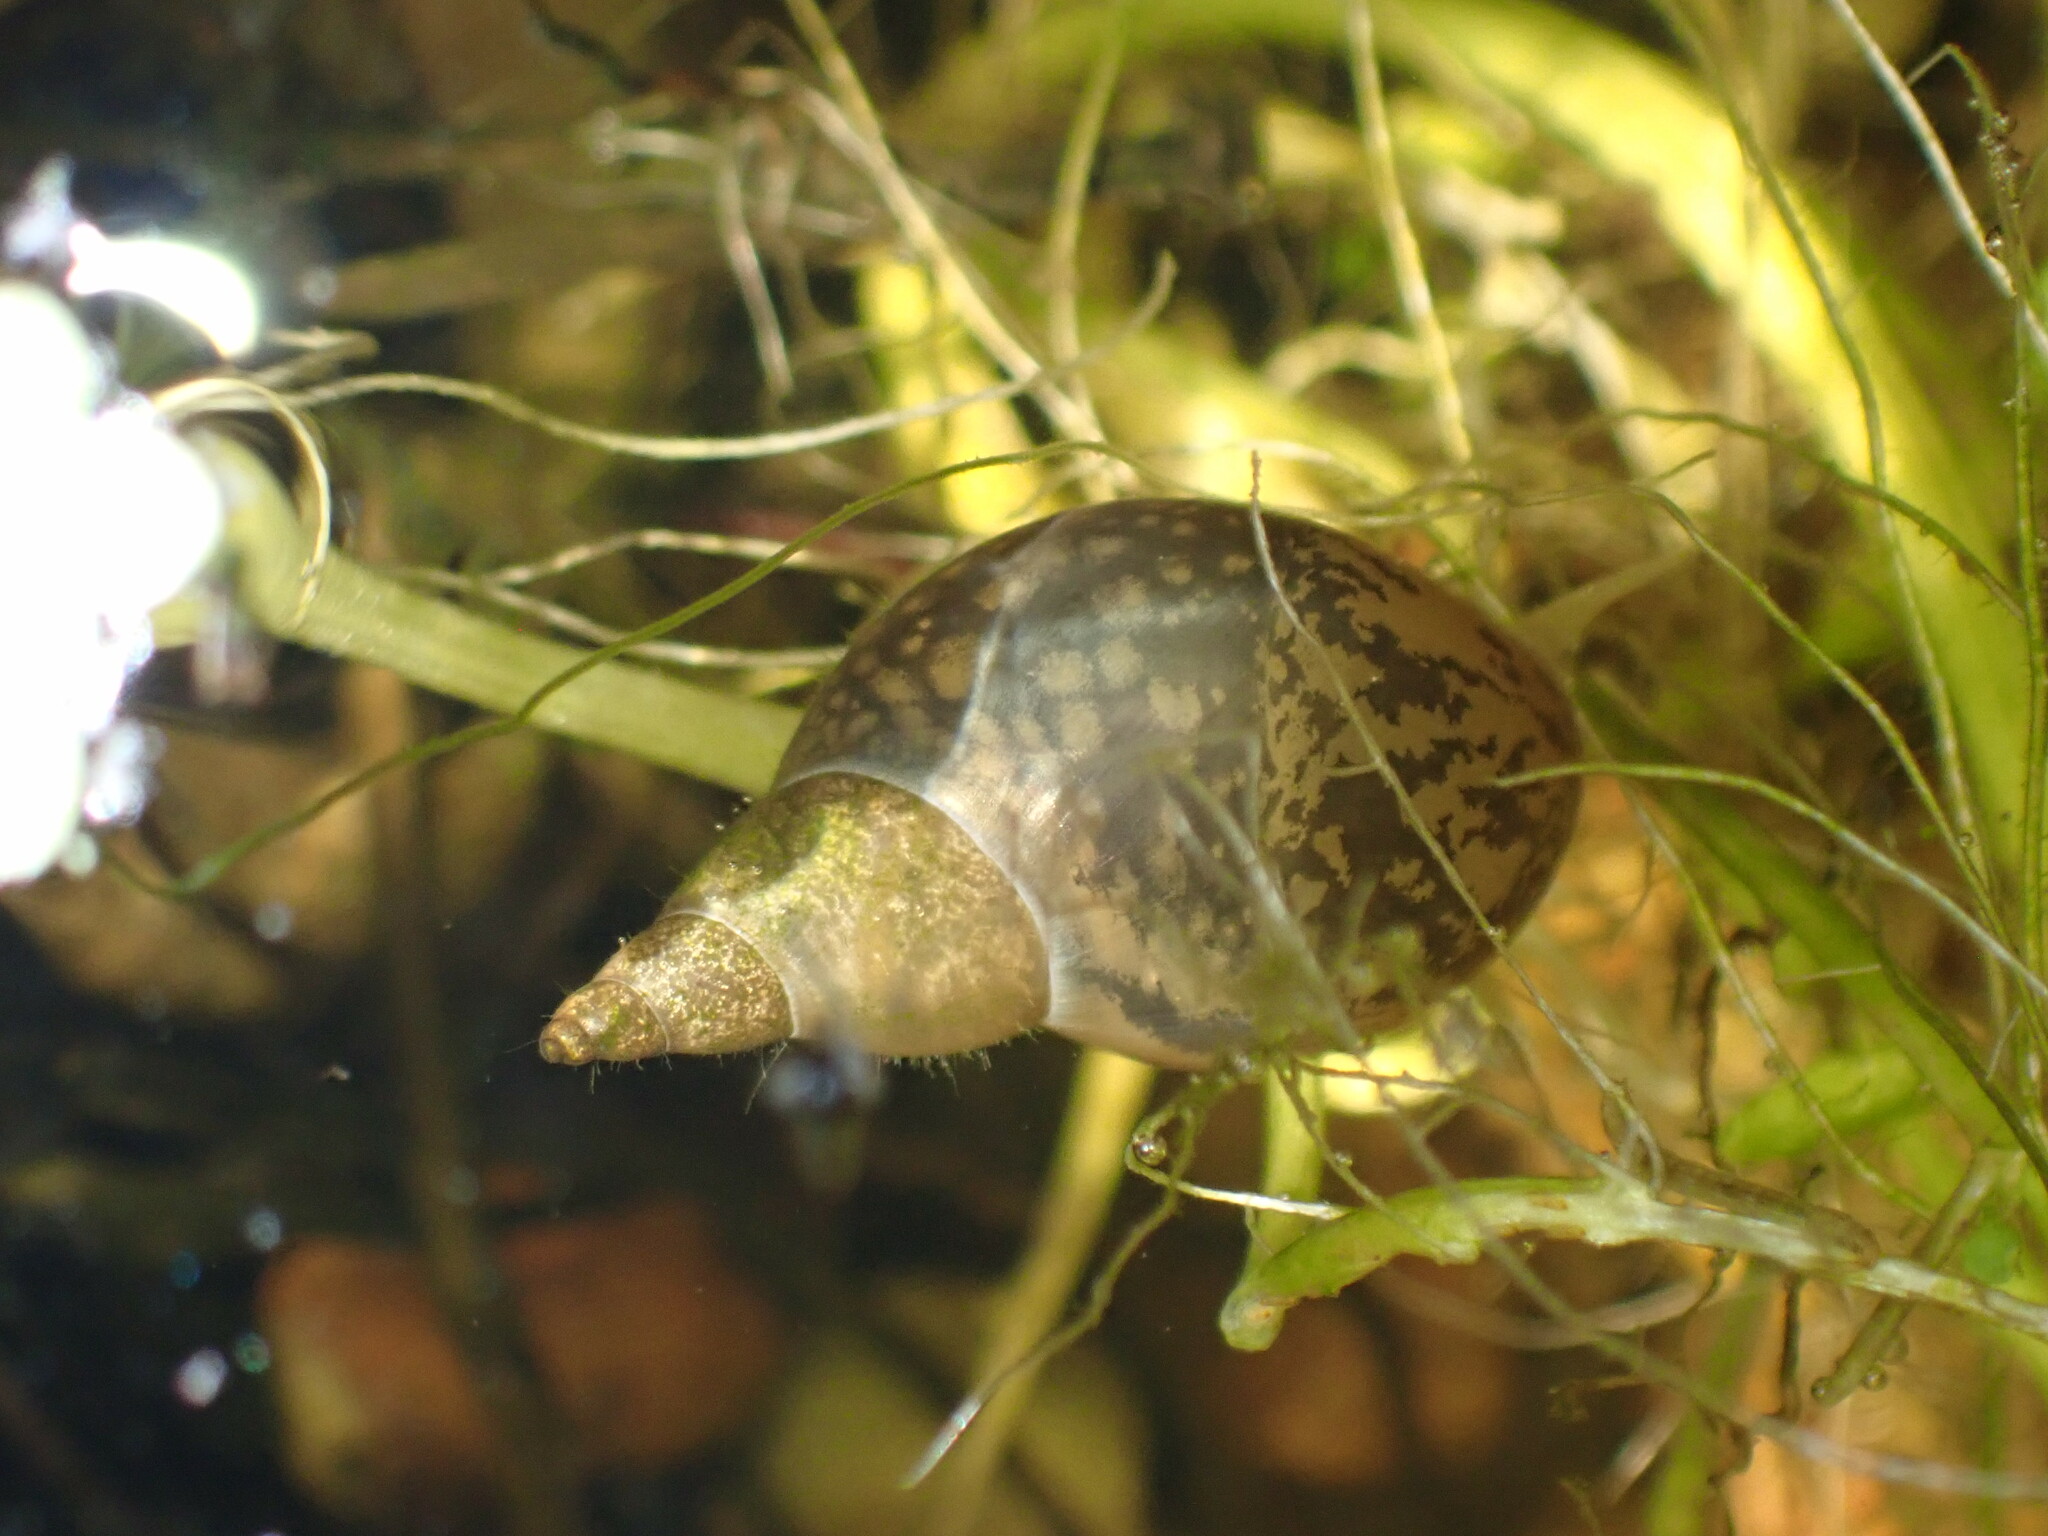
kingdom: Animalia
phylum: Mollusca
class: Gastropoda
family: Lymnaeidae
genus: Lymnaea
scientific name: Lymnaea stagnalis
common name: Great pond snail
